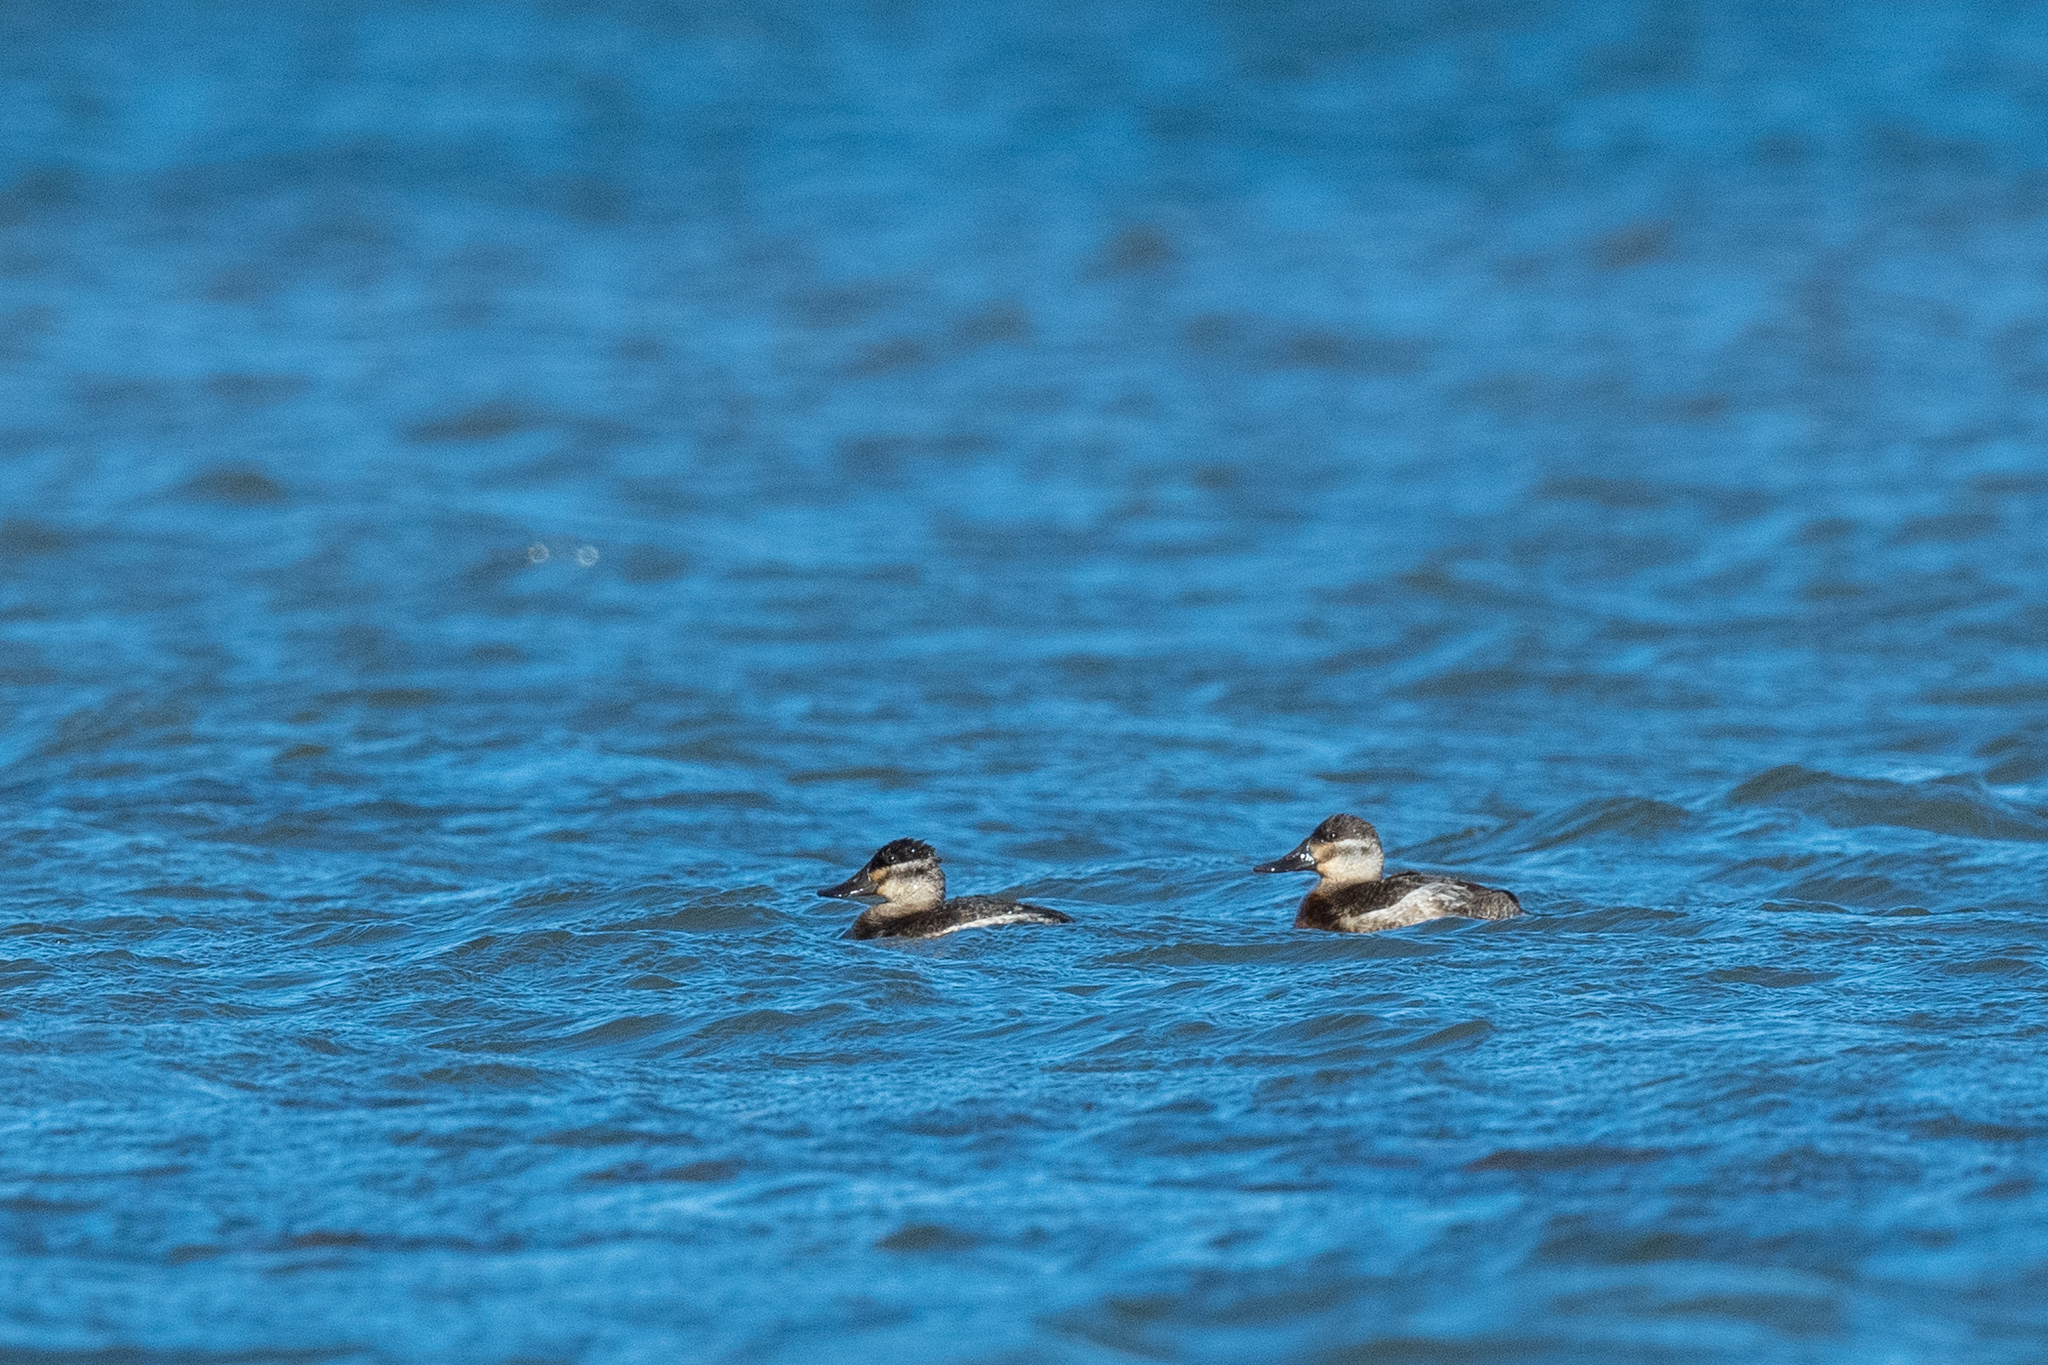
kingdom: Animalia
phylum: Chordata
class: Aves
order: Anseriformes
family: Anatidae
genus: Oxyura
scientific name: Oxyura jamaicensis
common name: Ruddy duck
